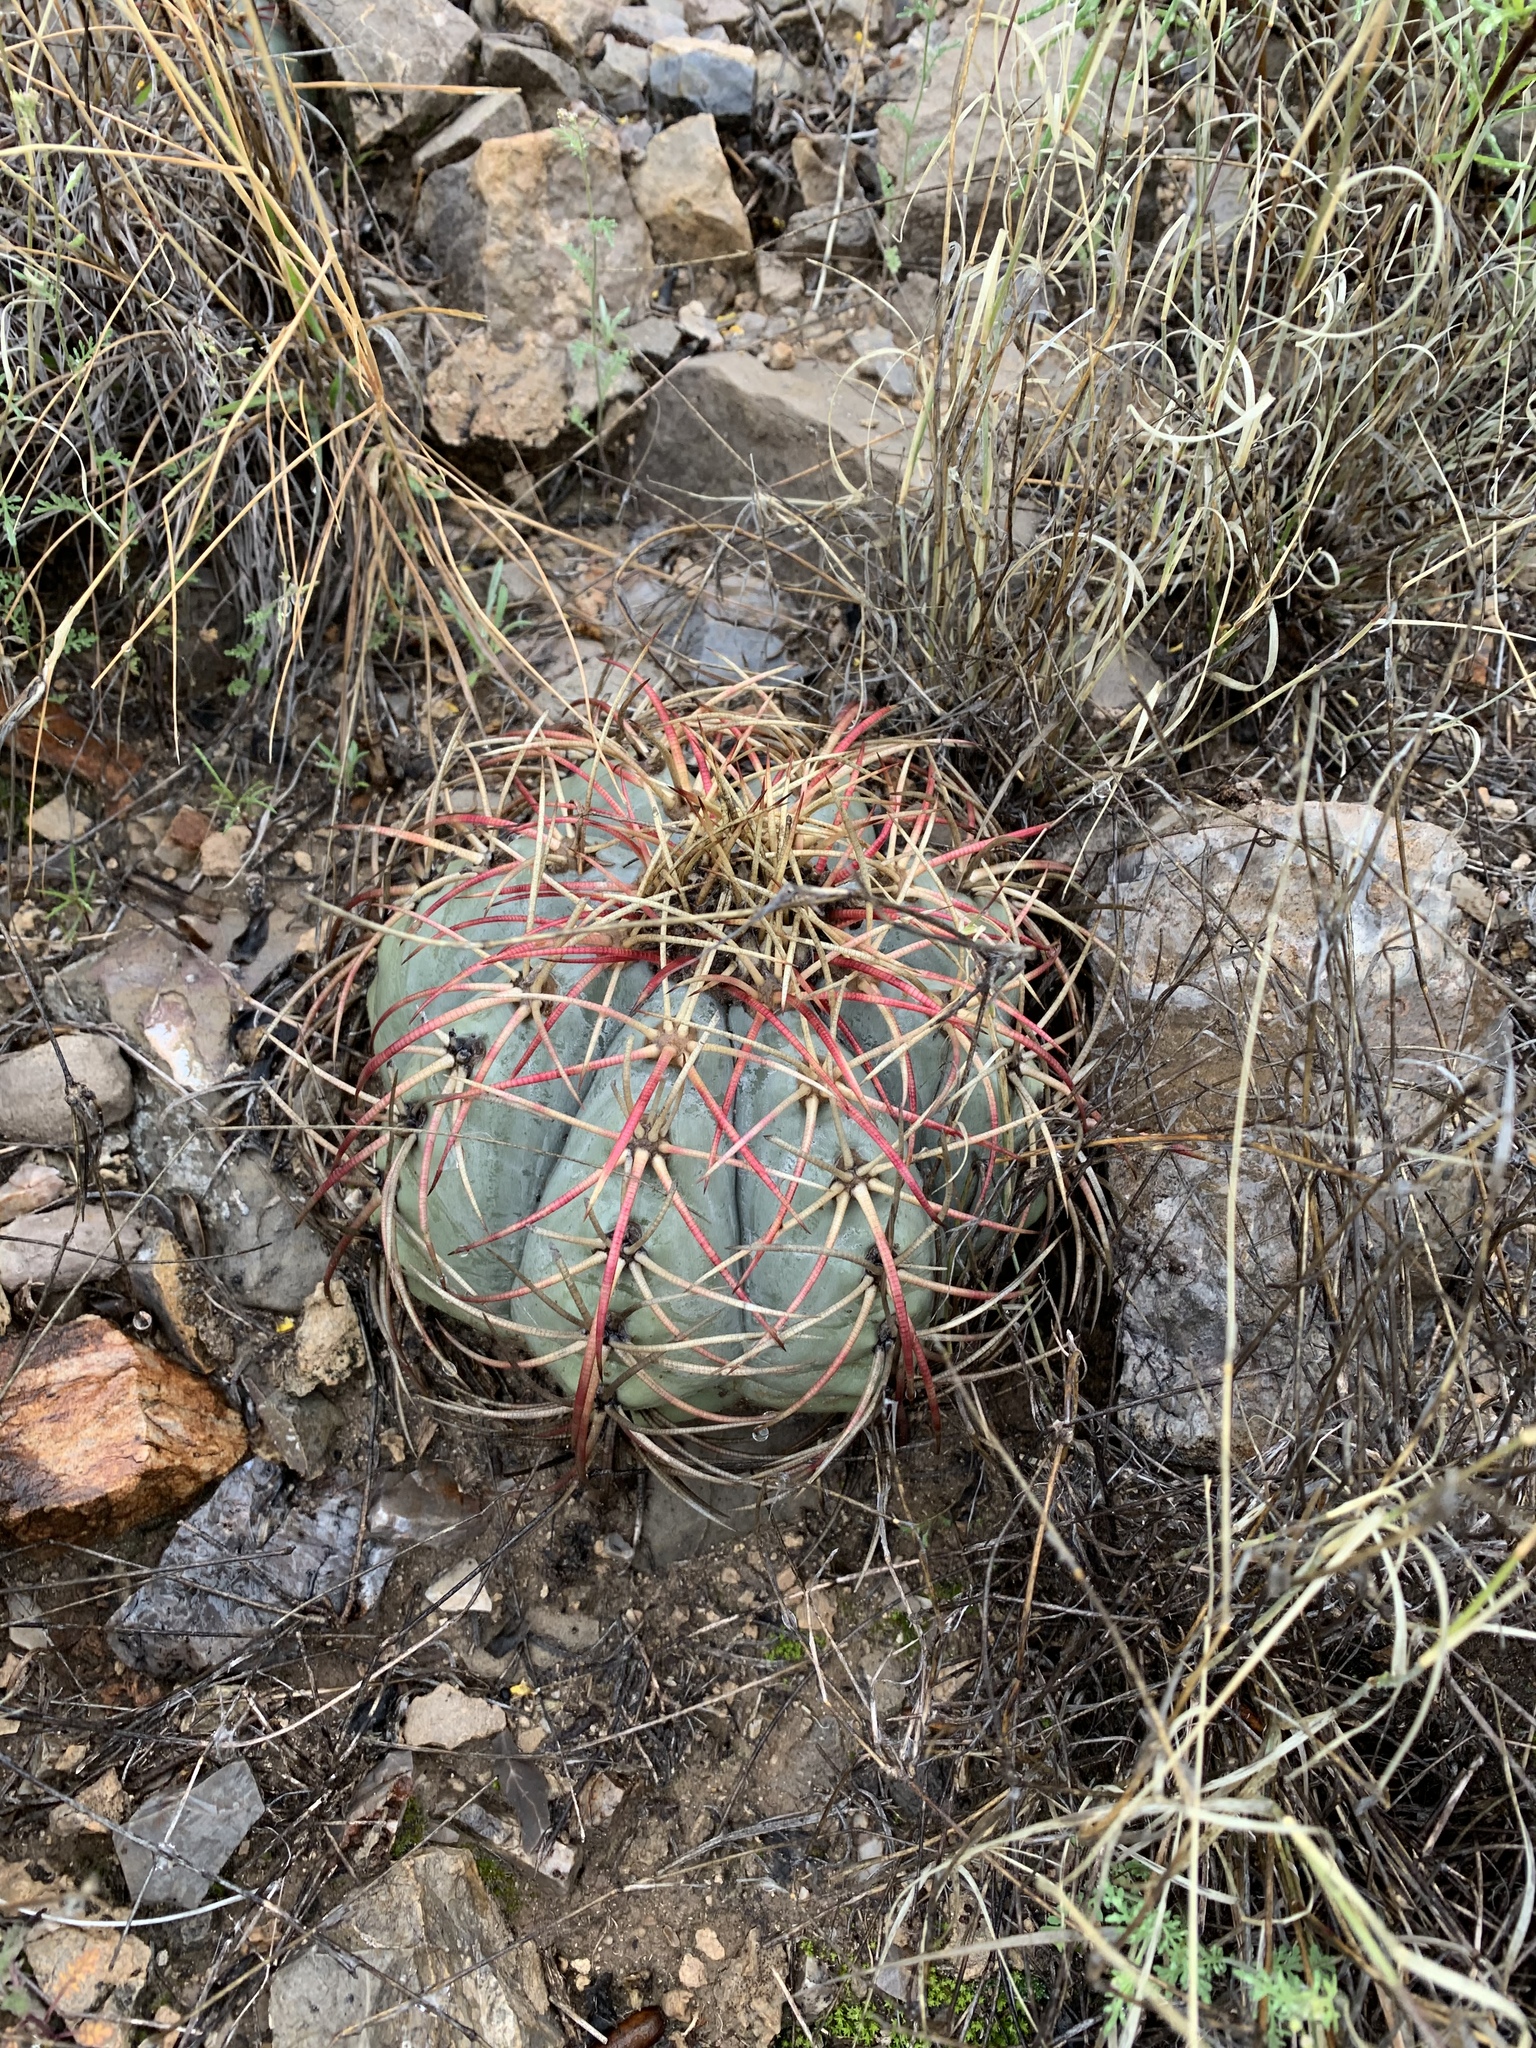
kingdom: Plantae
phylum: Tracheophyta
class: Magnoliopsida
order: Caryophyllales
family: Cactaceae
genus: Echinocactus
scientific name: Echinocactus horizonthalonius
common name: Devilshead
